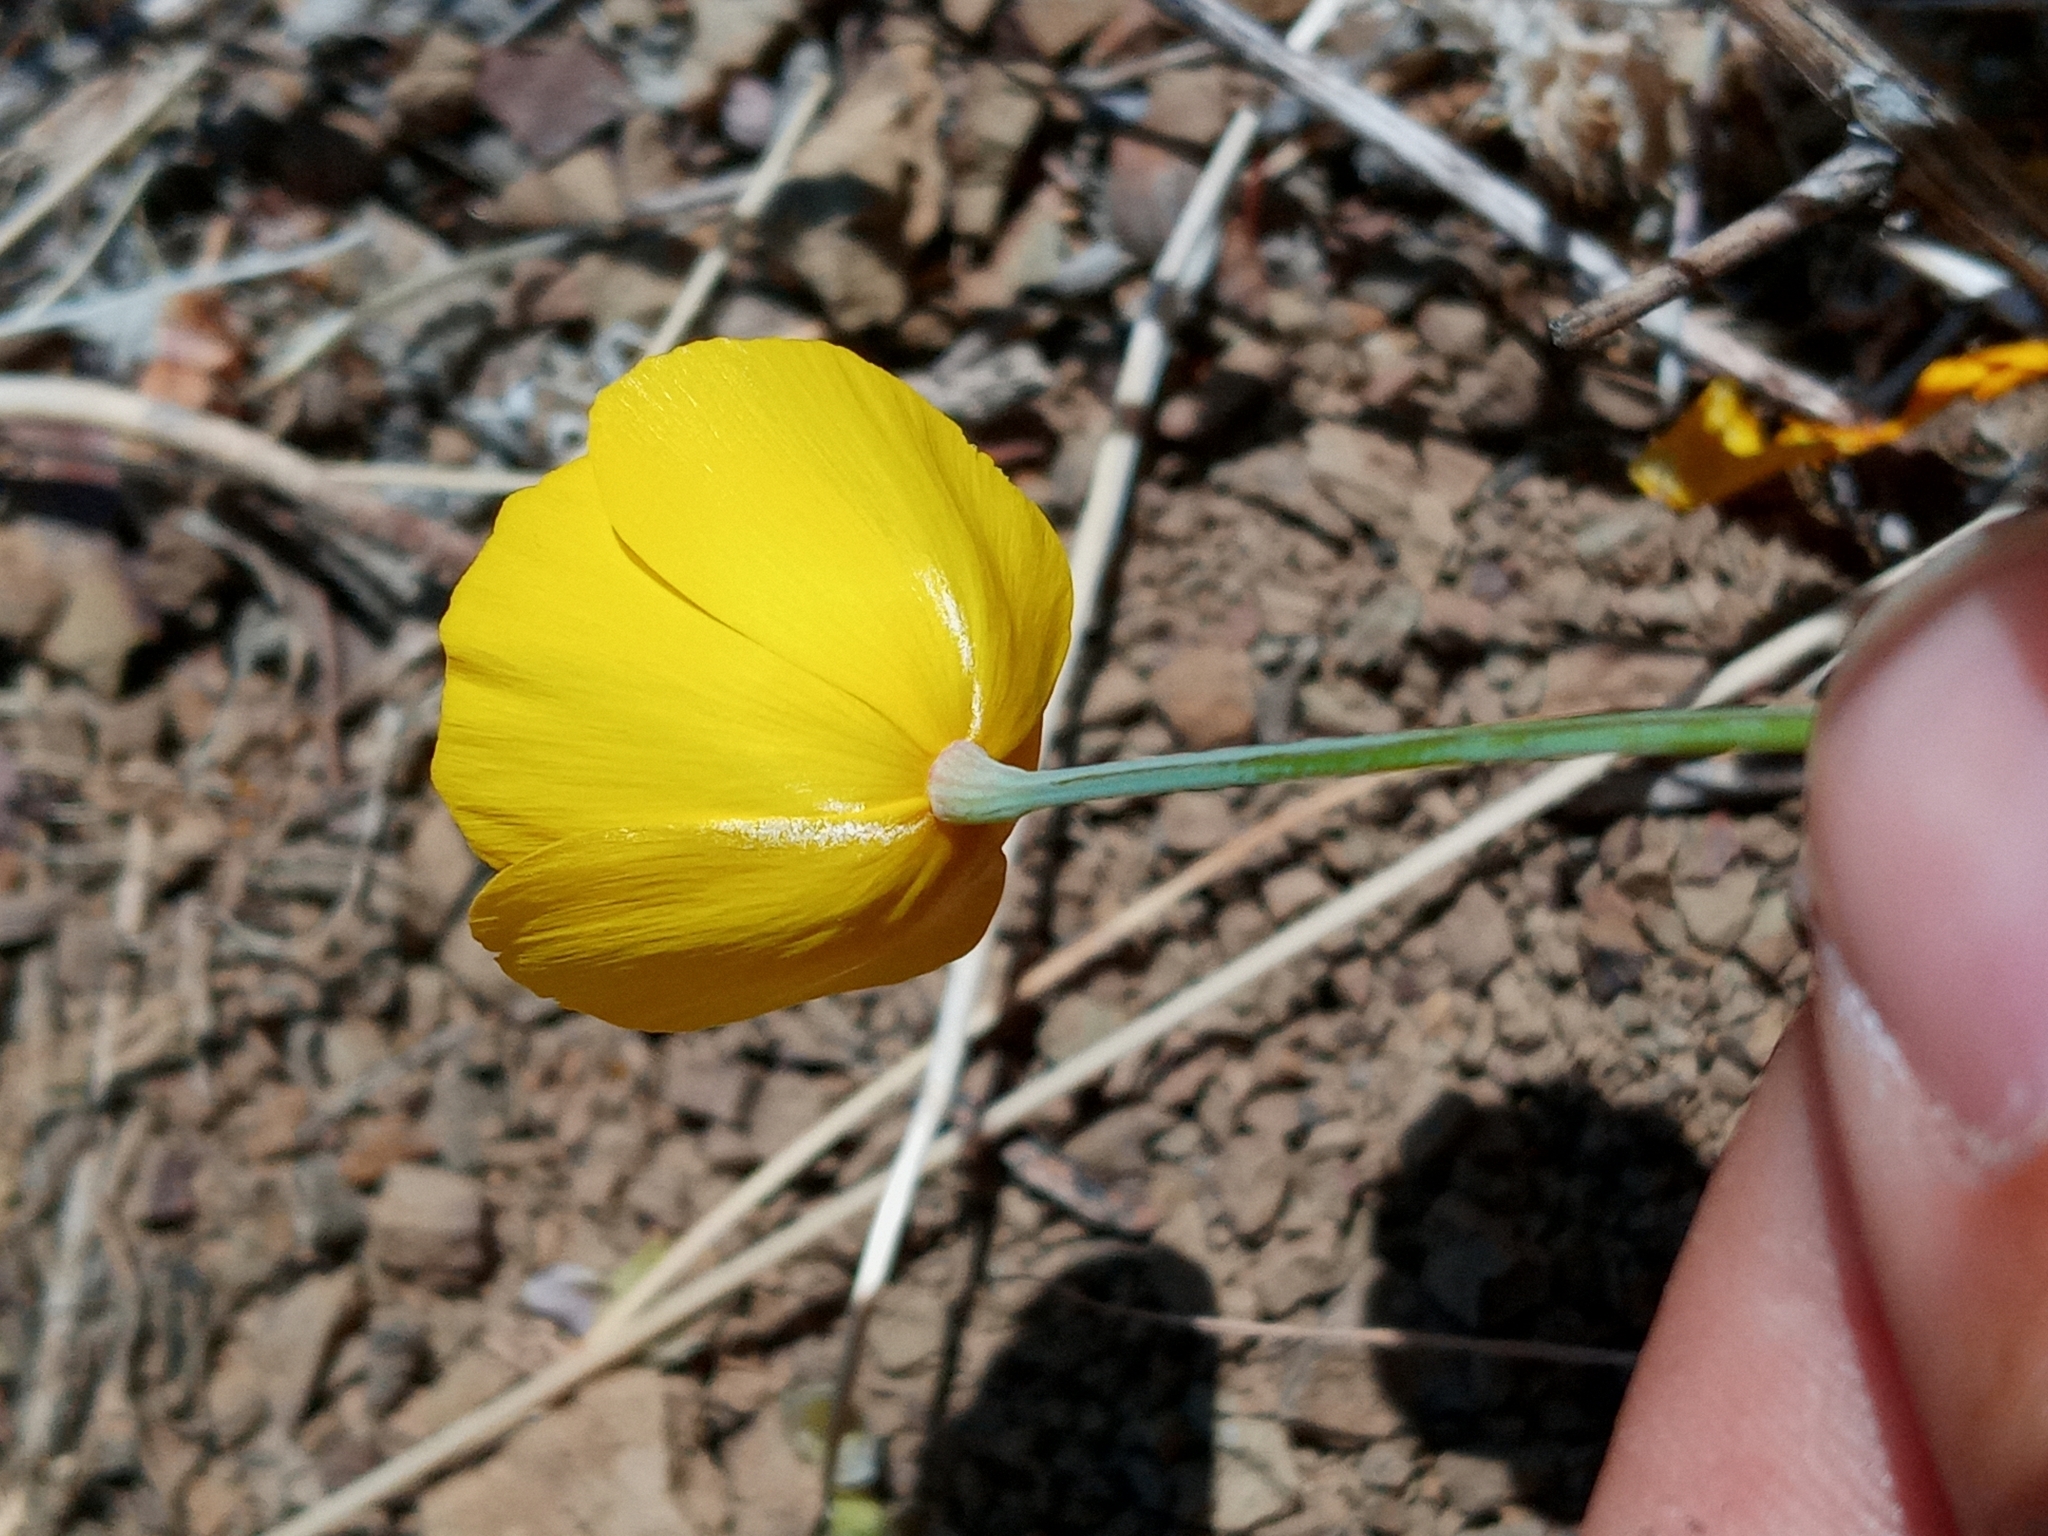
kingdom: Plantae
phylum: Tracheophyta
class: Magnoliopsida
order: Ranunculales
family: Papaveraceae
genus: Eschscholzia
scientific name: Eschscholzia caespitosa
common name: Tufted california-poppy
